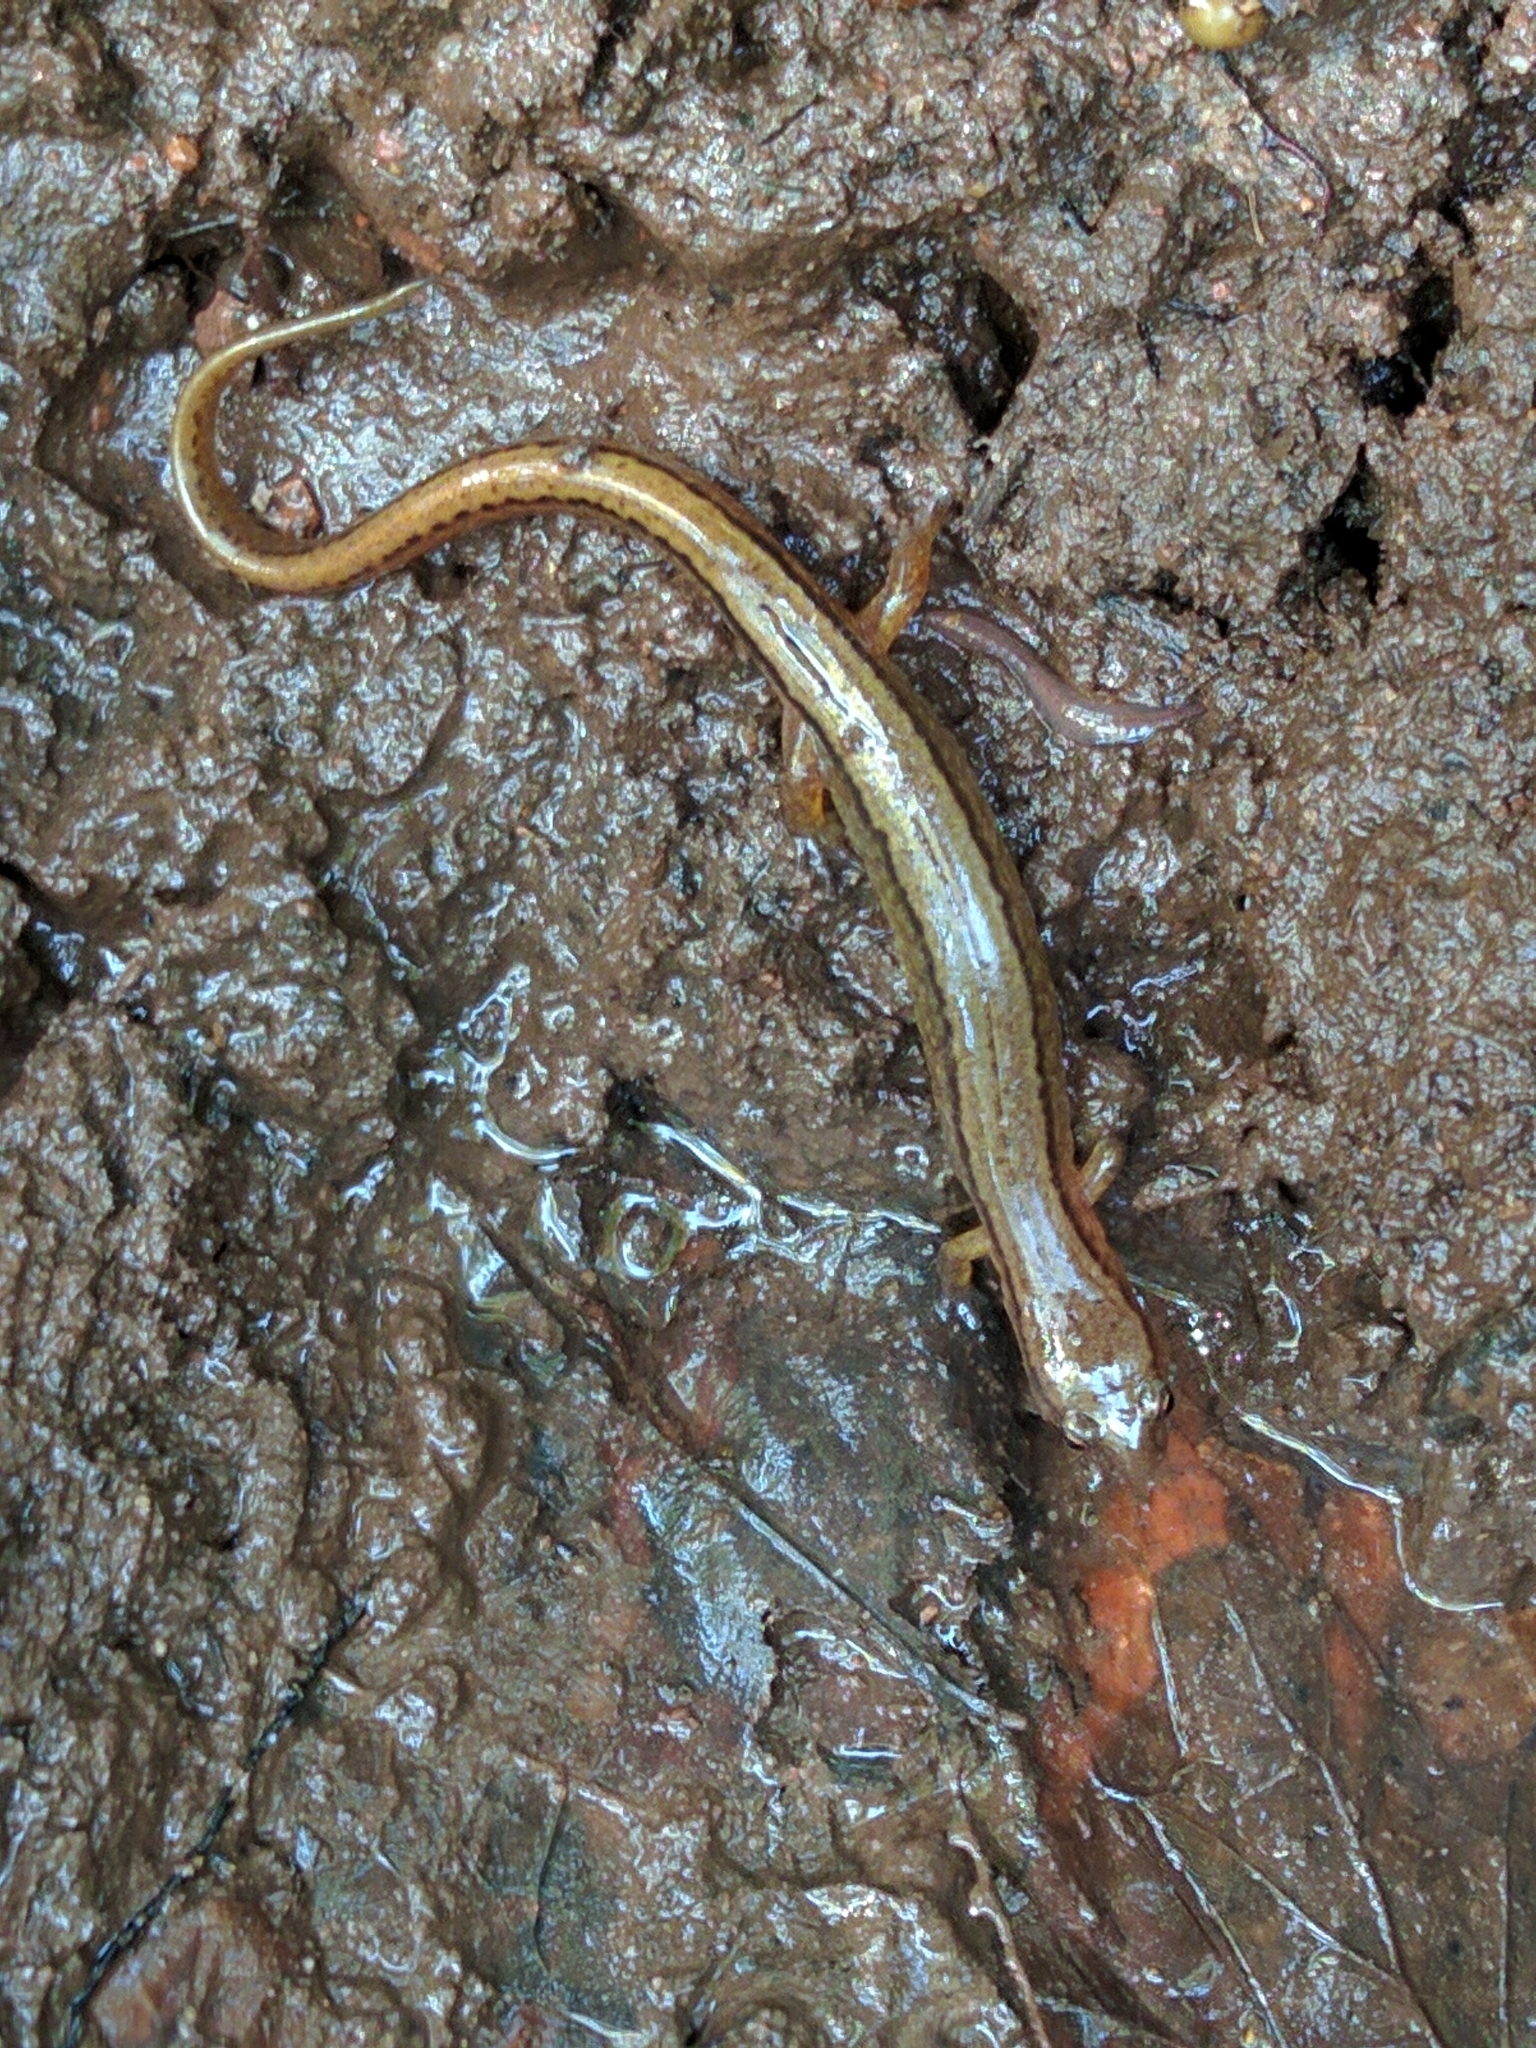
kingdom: Animalia
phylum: Chordata
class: Amphibia
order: Caudata
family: Plethodontidae
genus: Eurycea
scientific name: Eurycea bislineata
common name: Northern two-lined salamander
